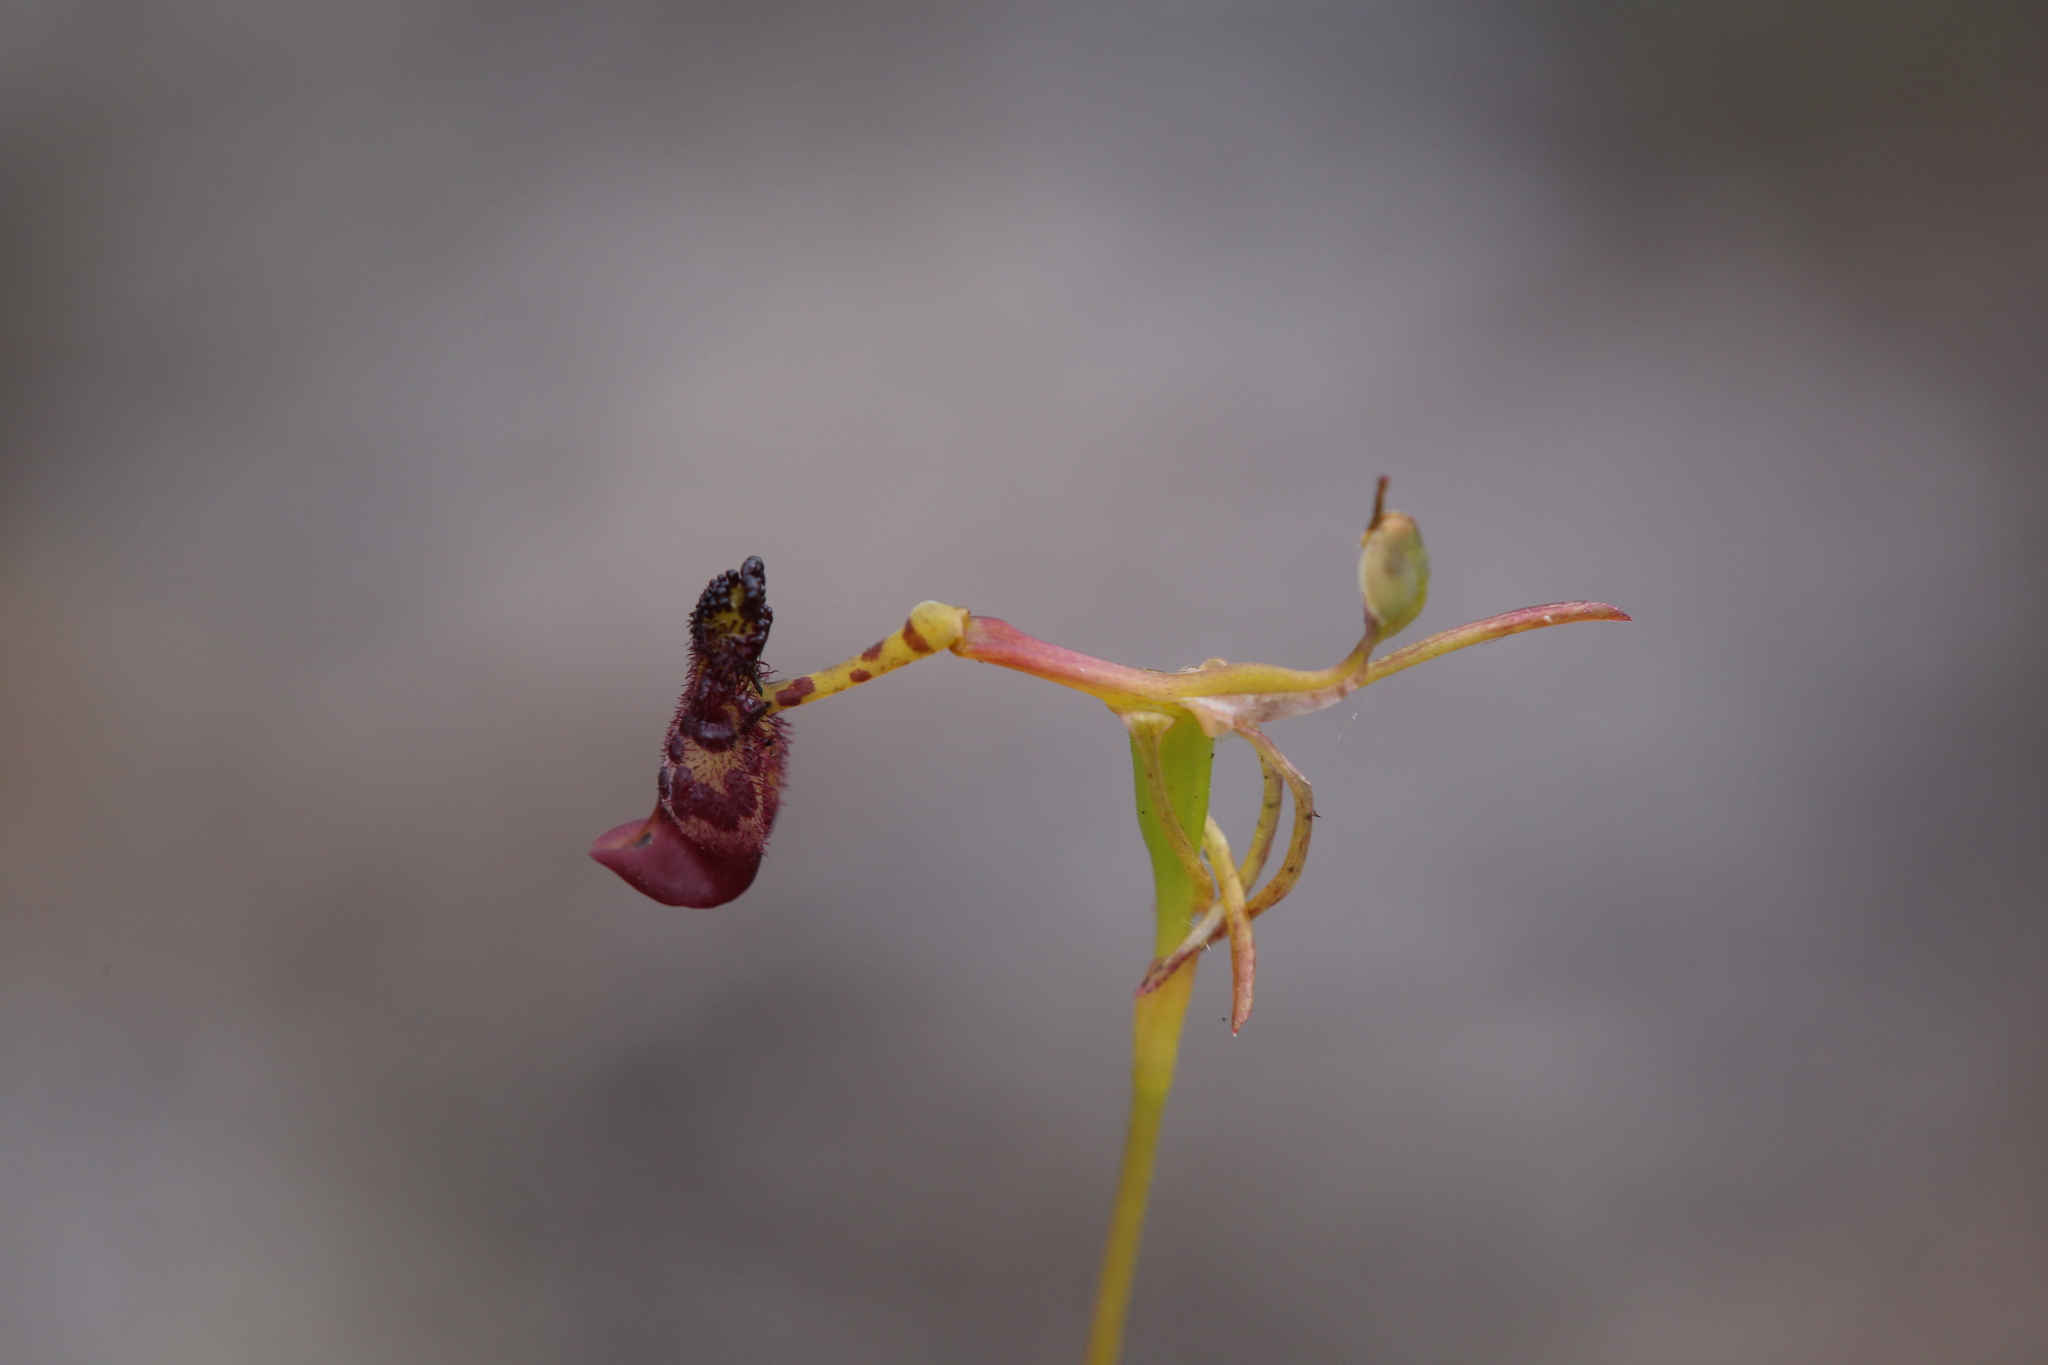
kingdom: Plantae
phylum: Tracheophyta
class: Liliopsida
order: Asparagales
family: Orchidaceae
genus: Drakaea
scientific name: Drakaea livida
